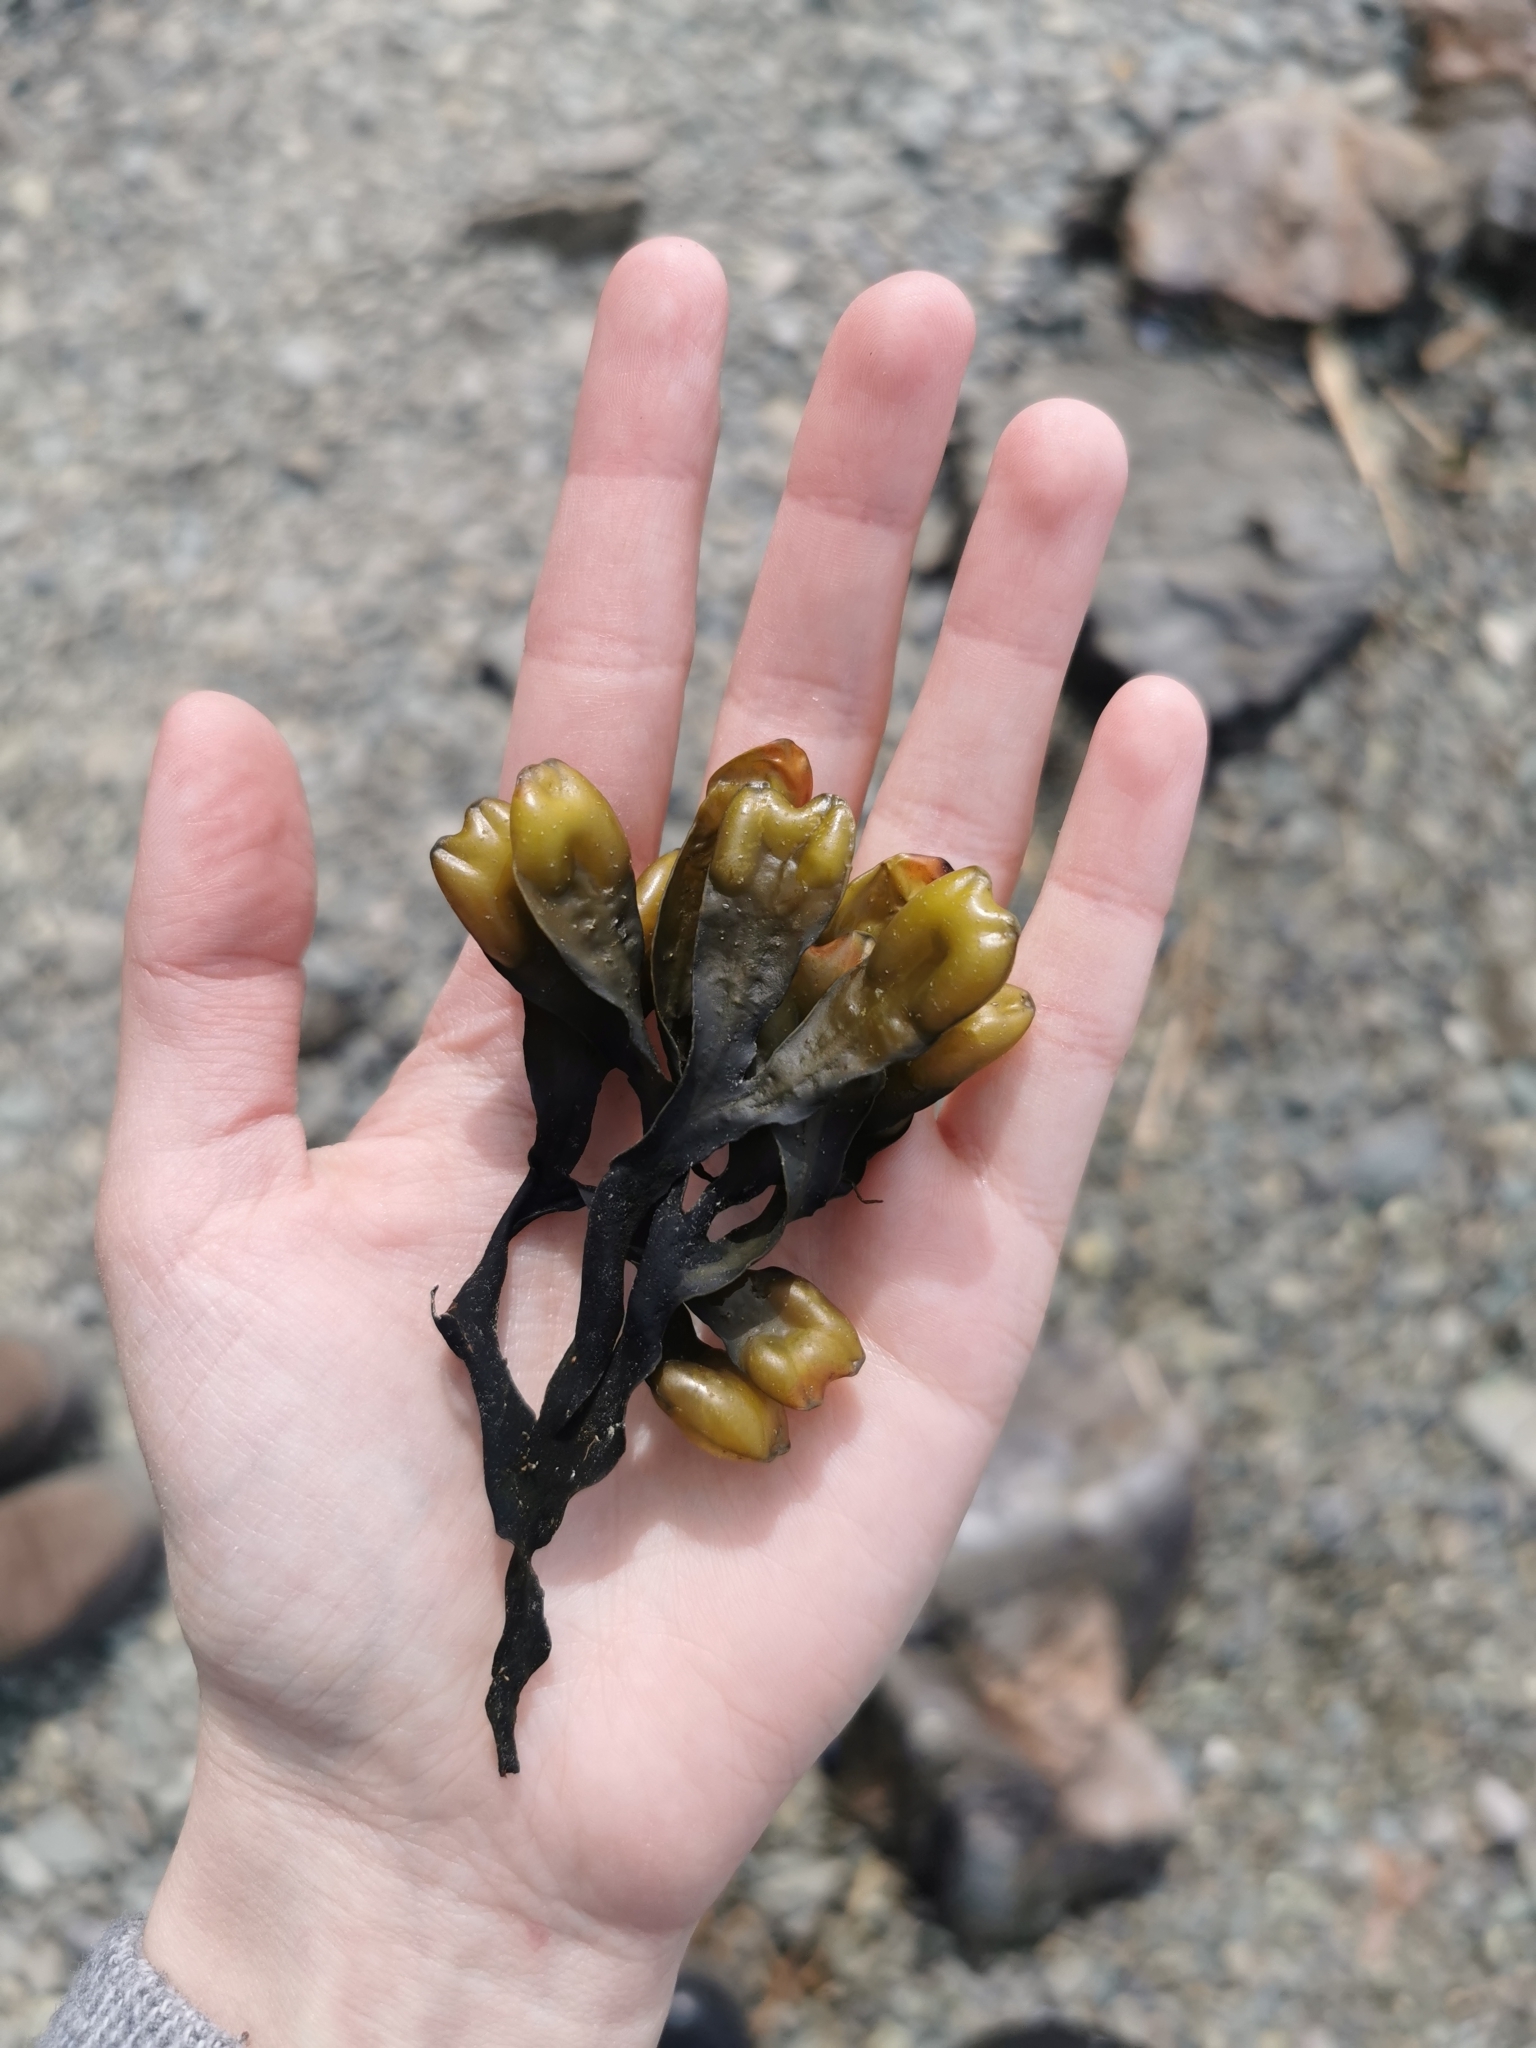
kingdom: Chromista
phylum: Ochrophyta
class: Phaeophyceae
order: Fucales
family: Fucaceae
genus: Fucus
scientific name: Fucus distichus
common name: Rockweed
